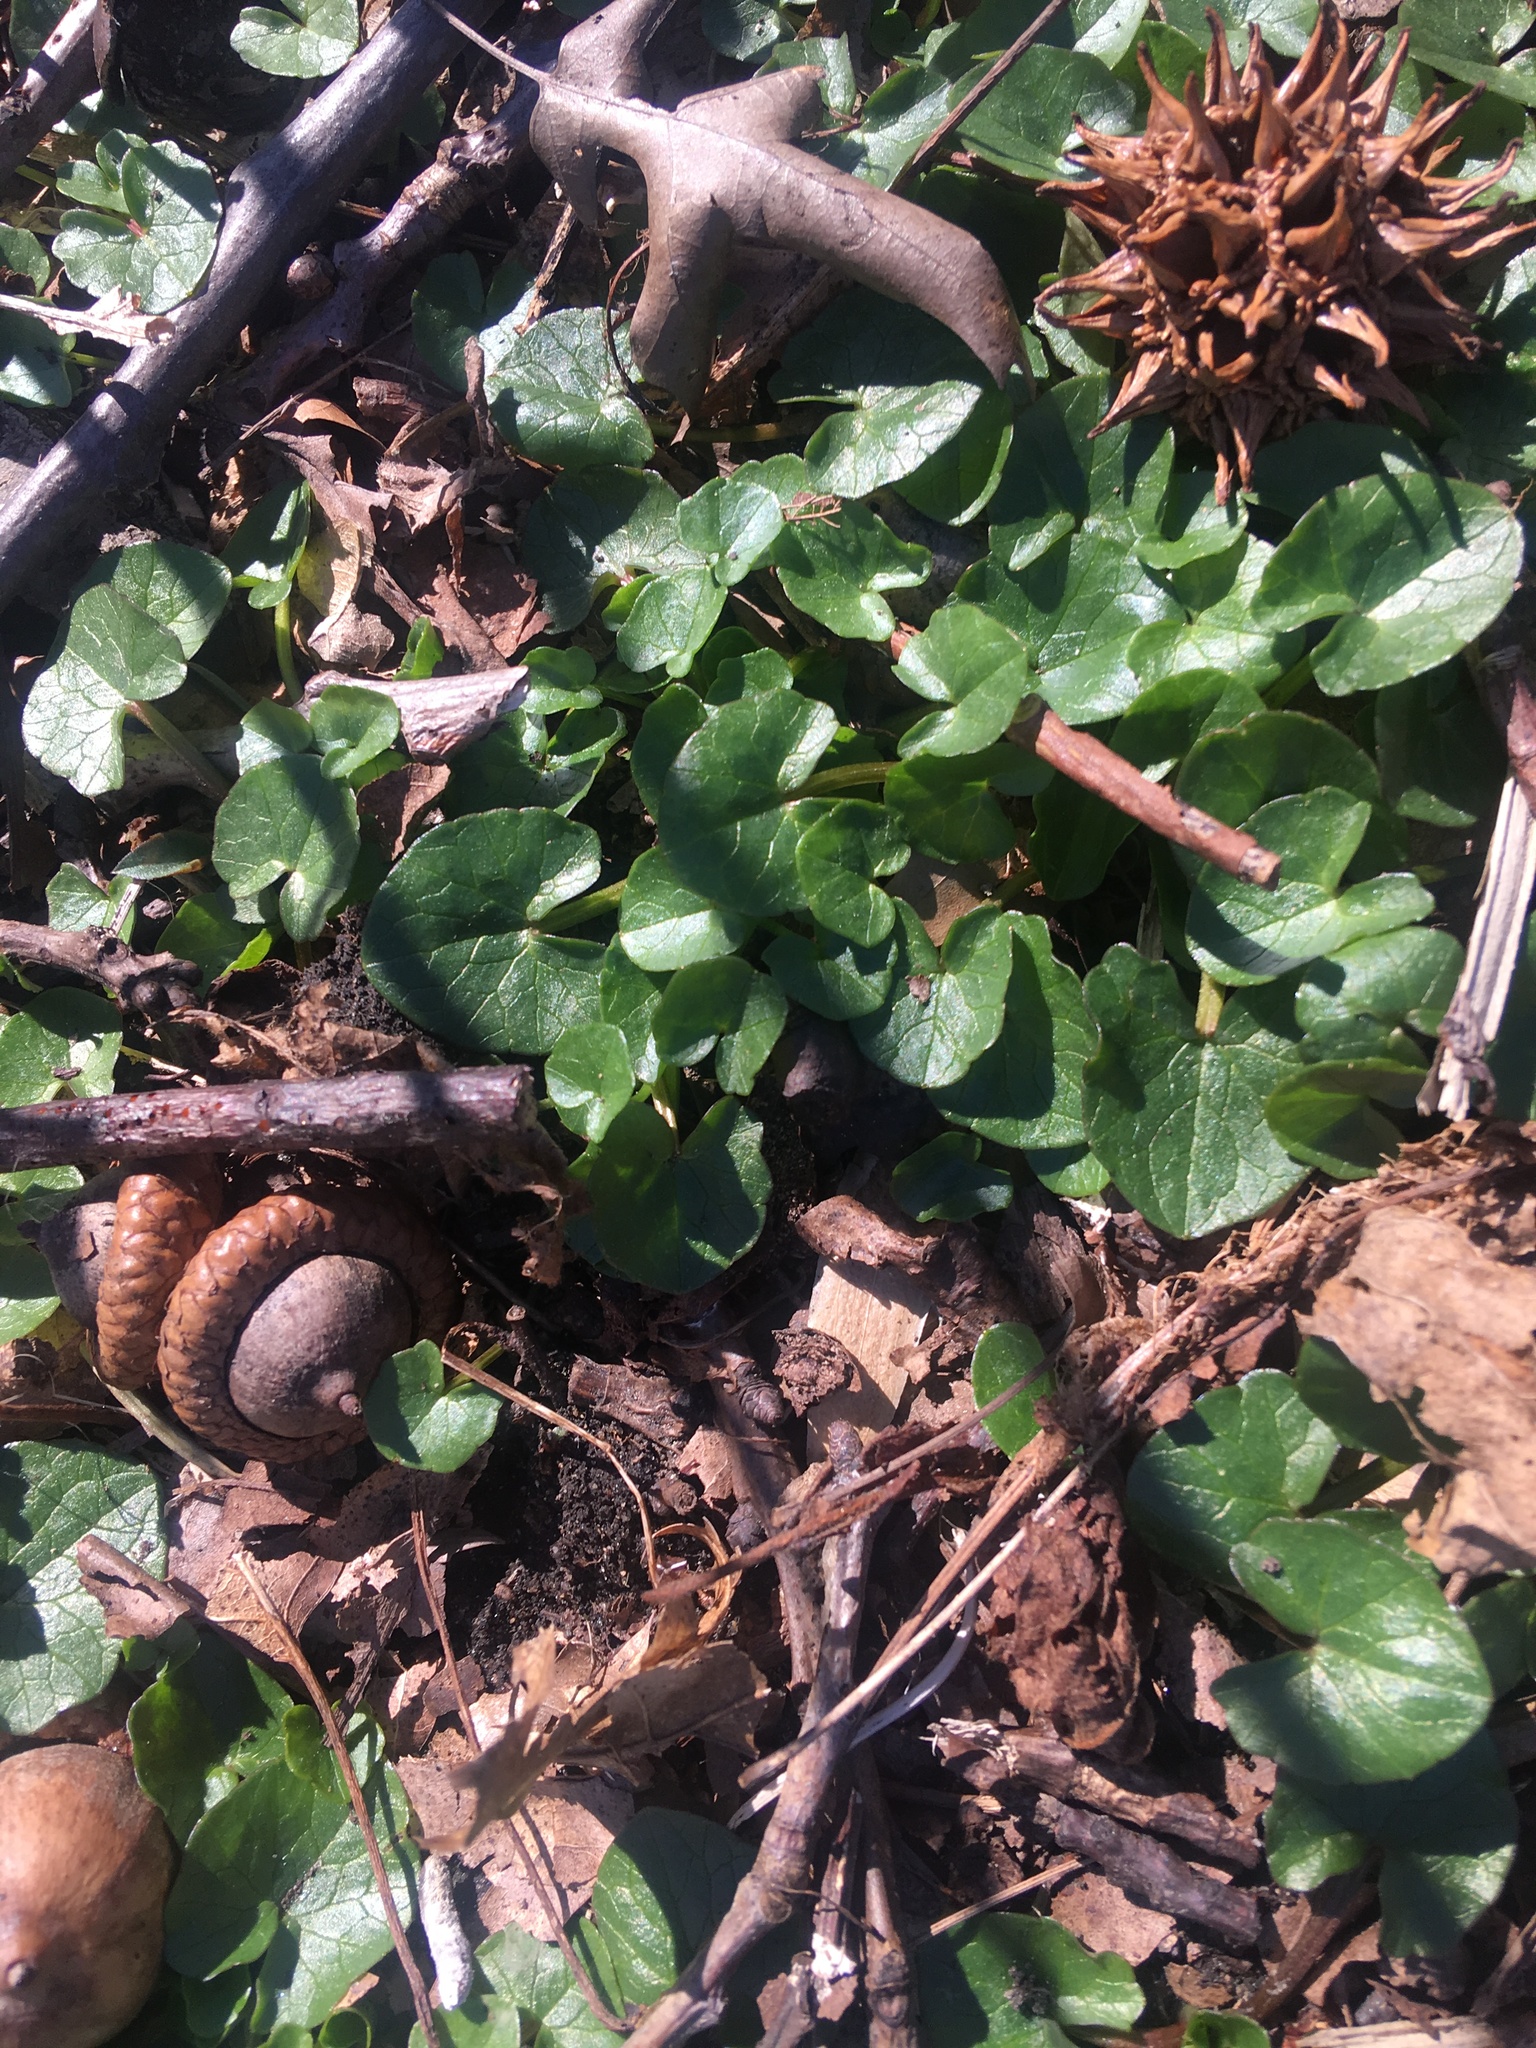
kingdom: Plantae
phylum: Tracheophyta
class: Magnoliopsida
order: Ranunculales
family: Ranunculaceae
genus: Ficaria
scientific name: Ficaria verna
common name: Lesser celandine
